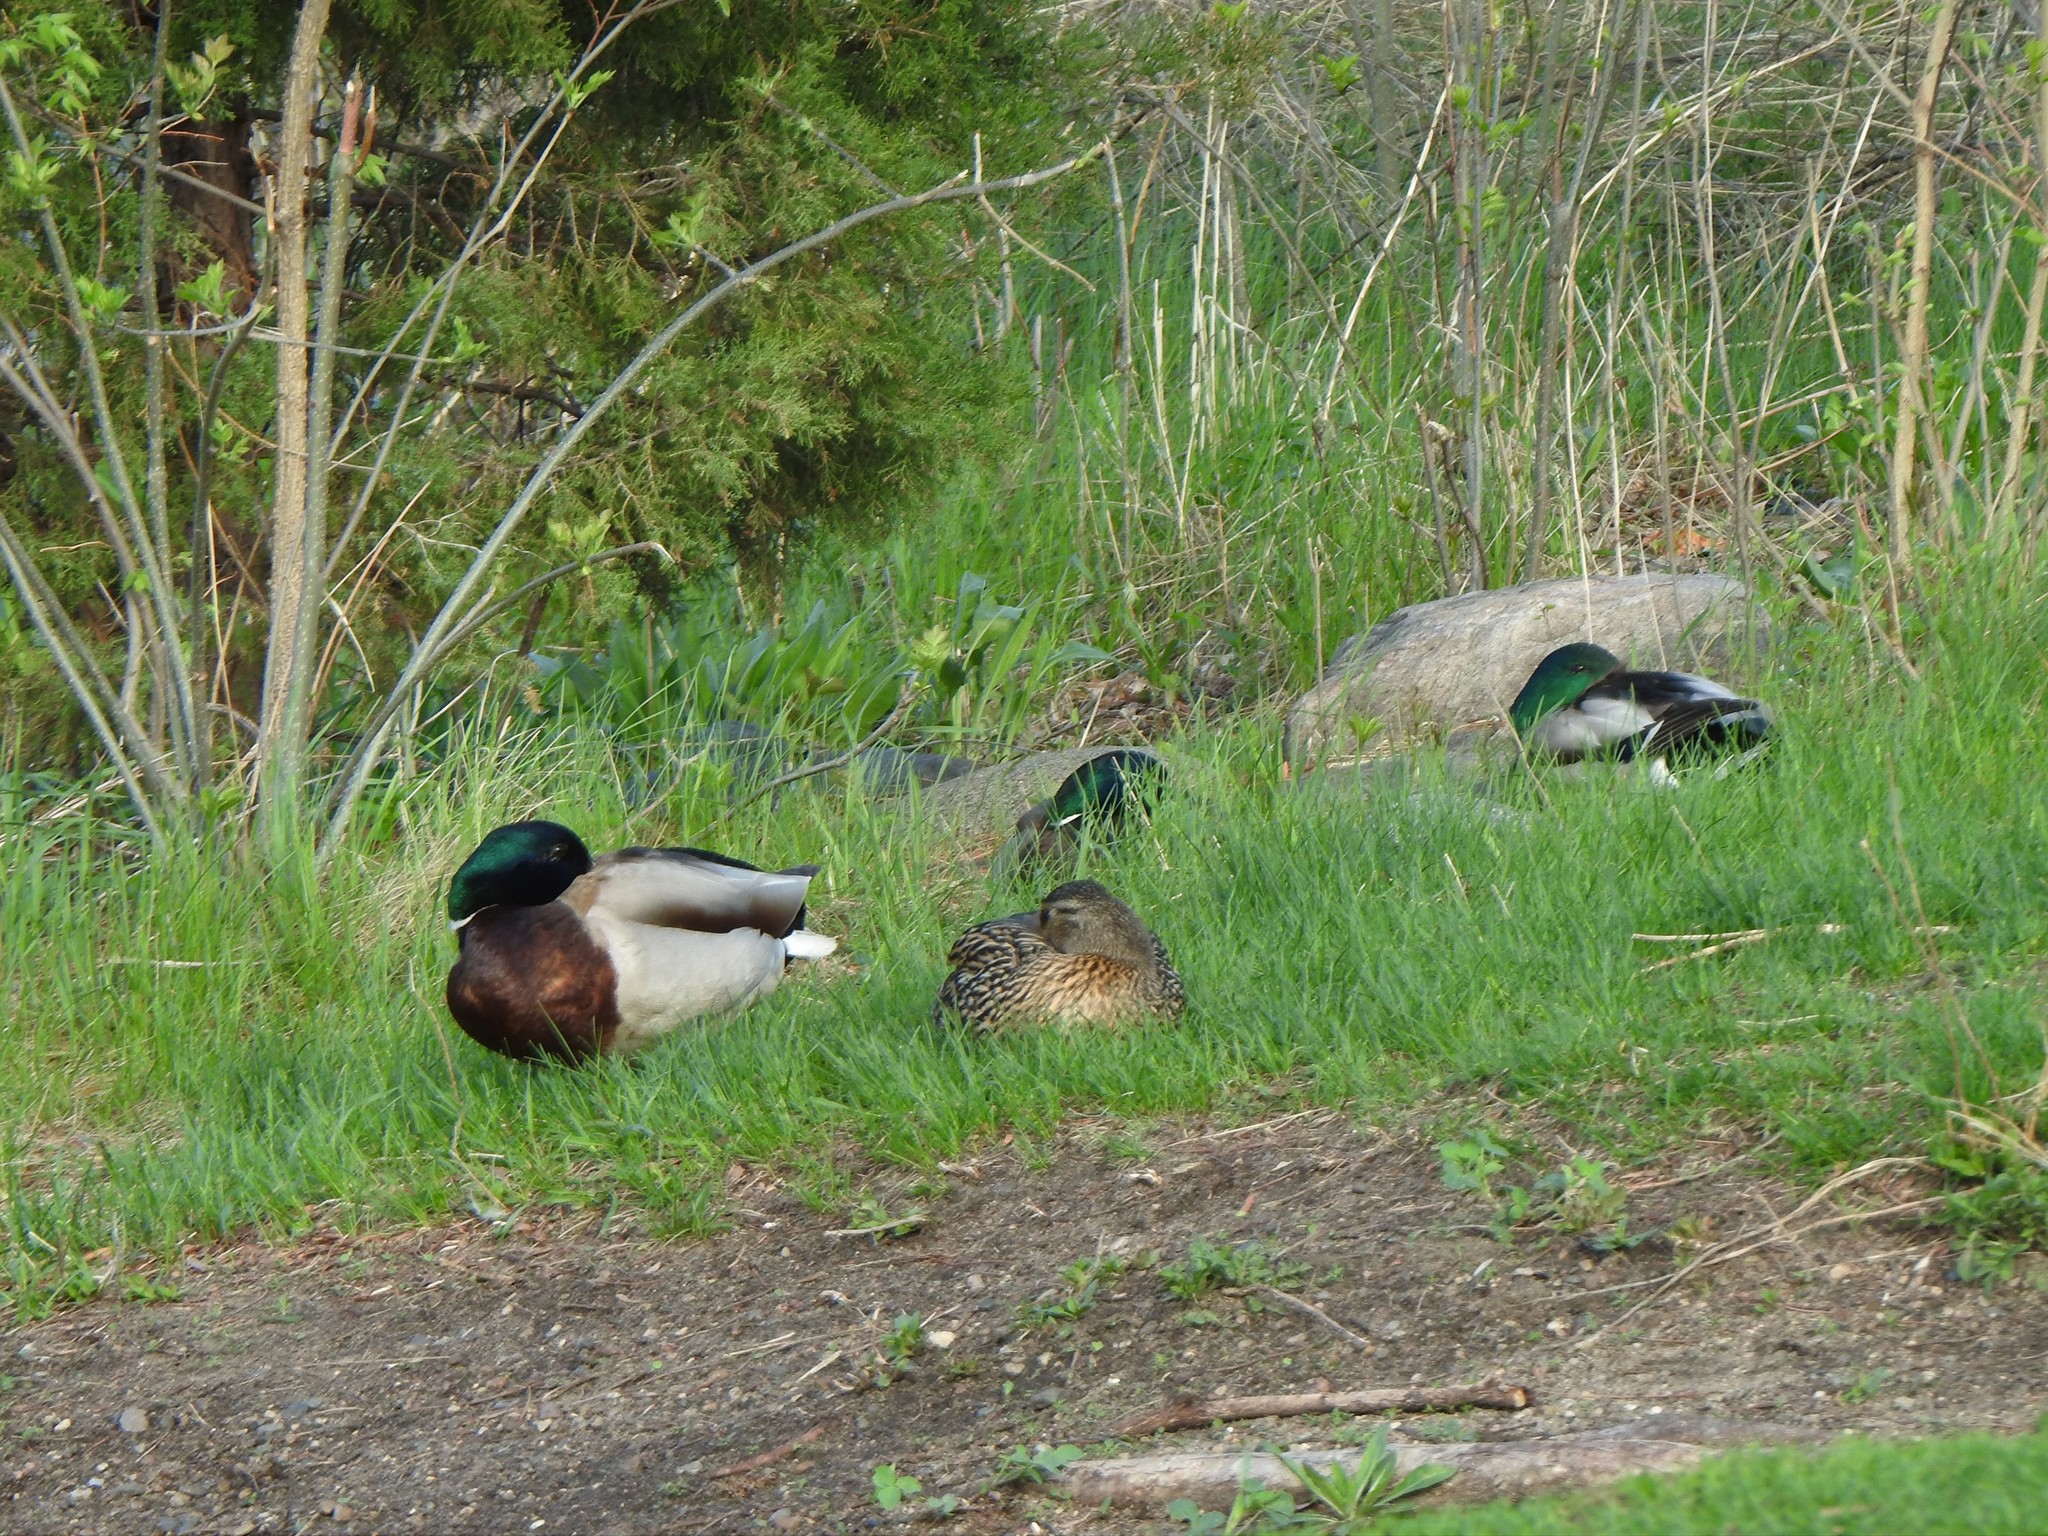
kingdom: Animalia
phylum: Chordata
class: Aves
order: Anseriformes
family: Anatidae
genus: Anas
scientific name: Anas platyrhynchos
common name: Mallard
